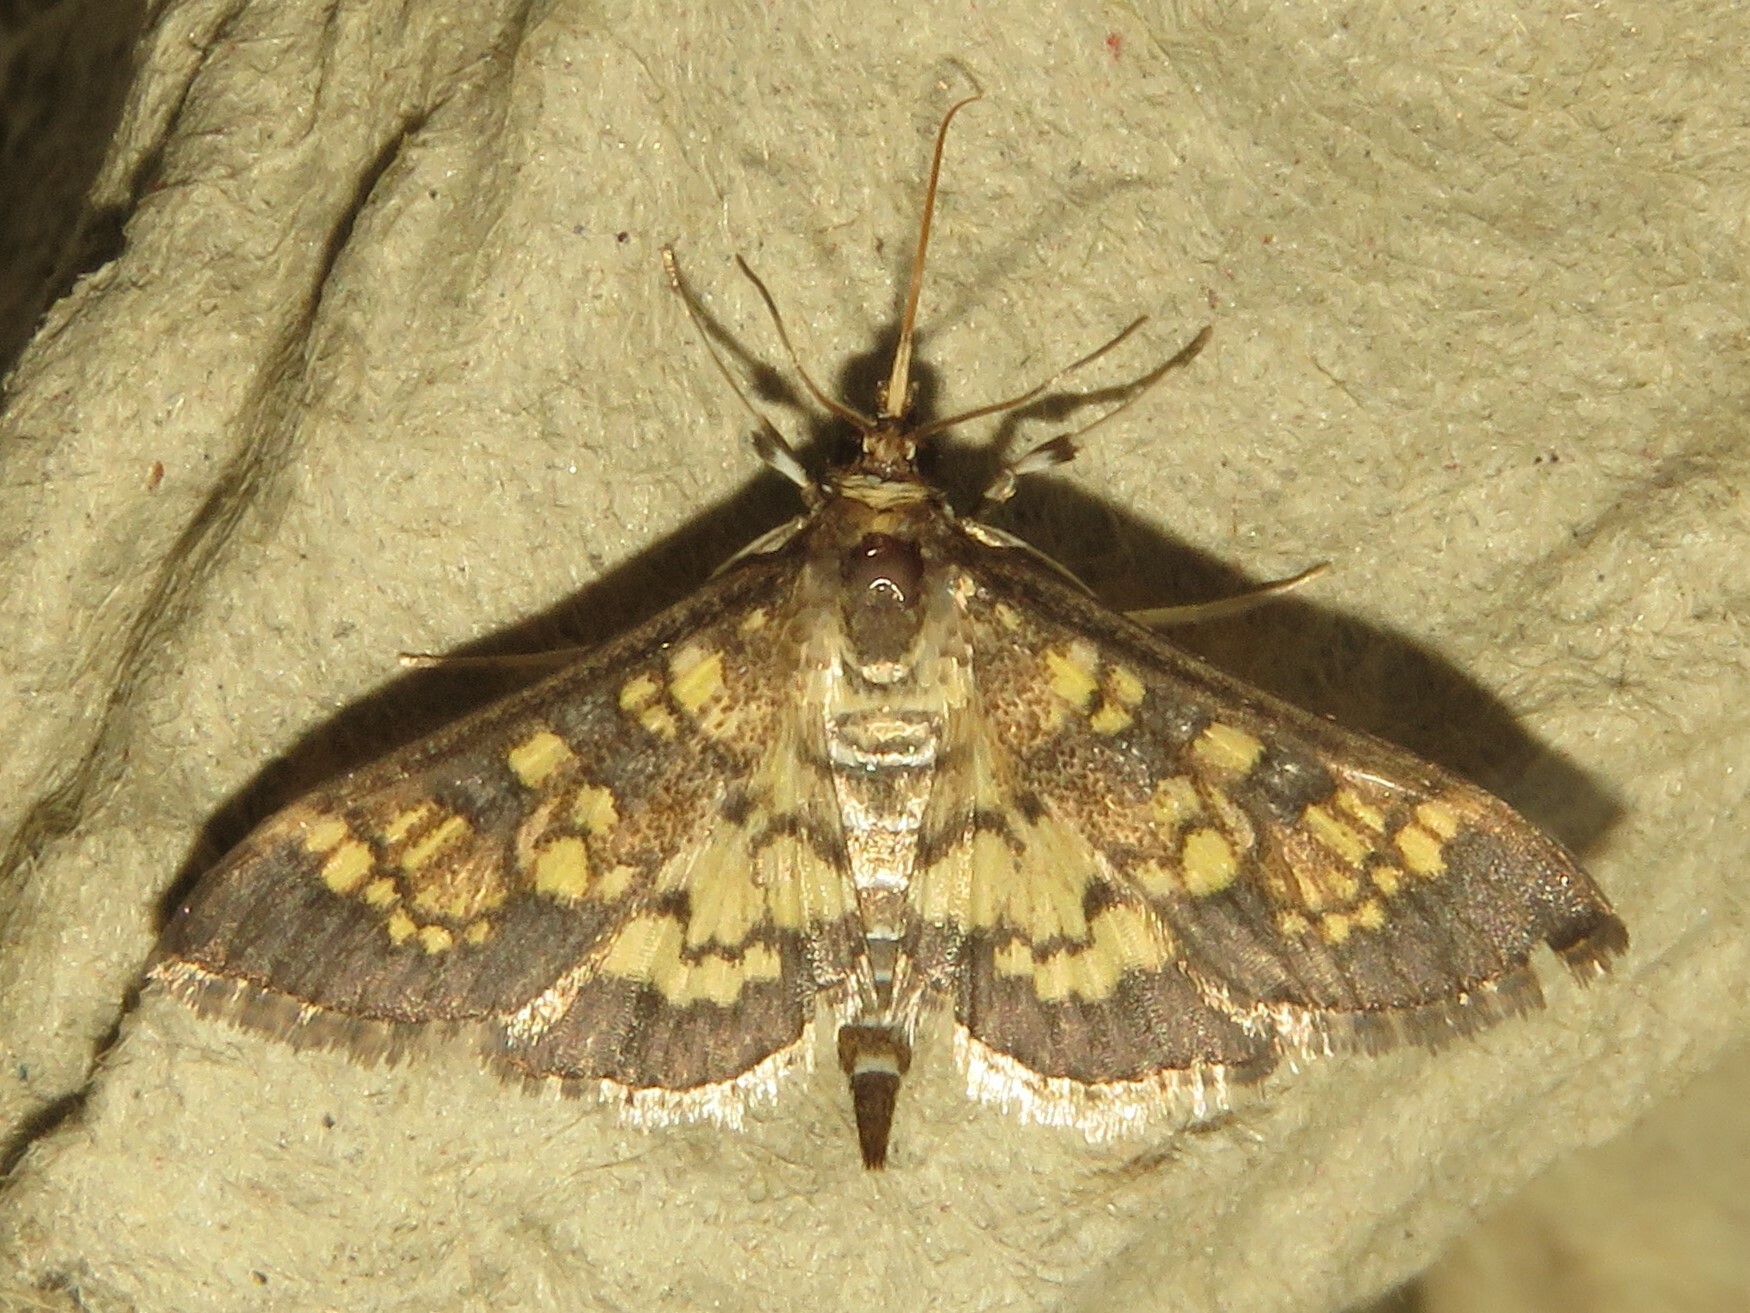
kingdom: Animalia
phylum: Arthropoda
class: Insecta
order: Lepidoptera
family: Crambidae
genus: Epipagis
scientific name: Epipagis adipaloides
